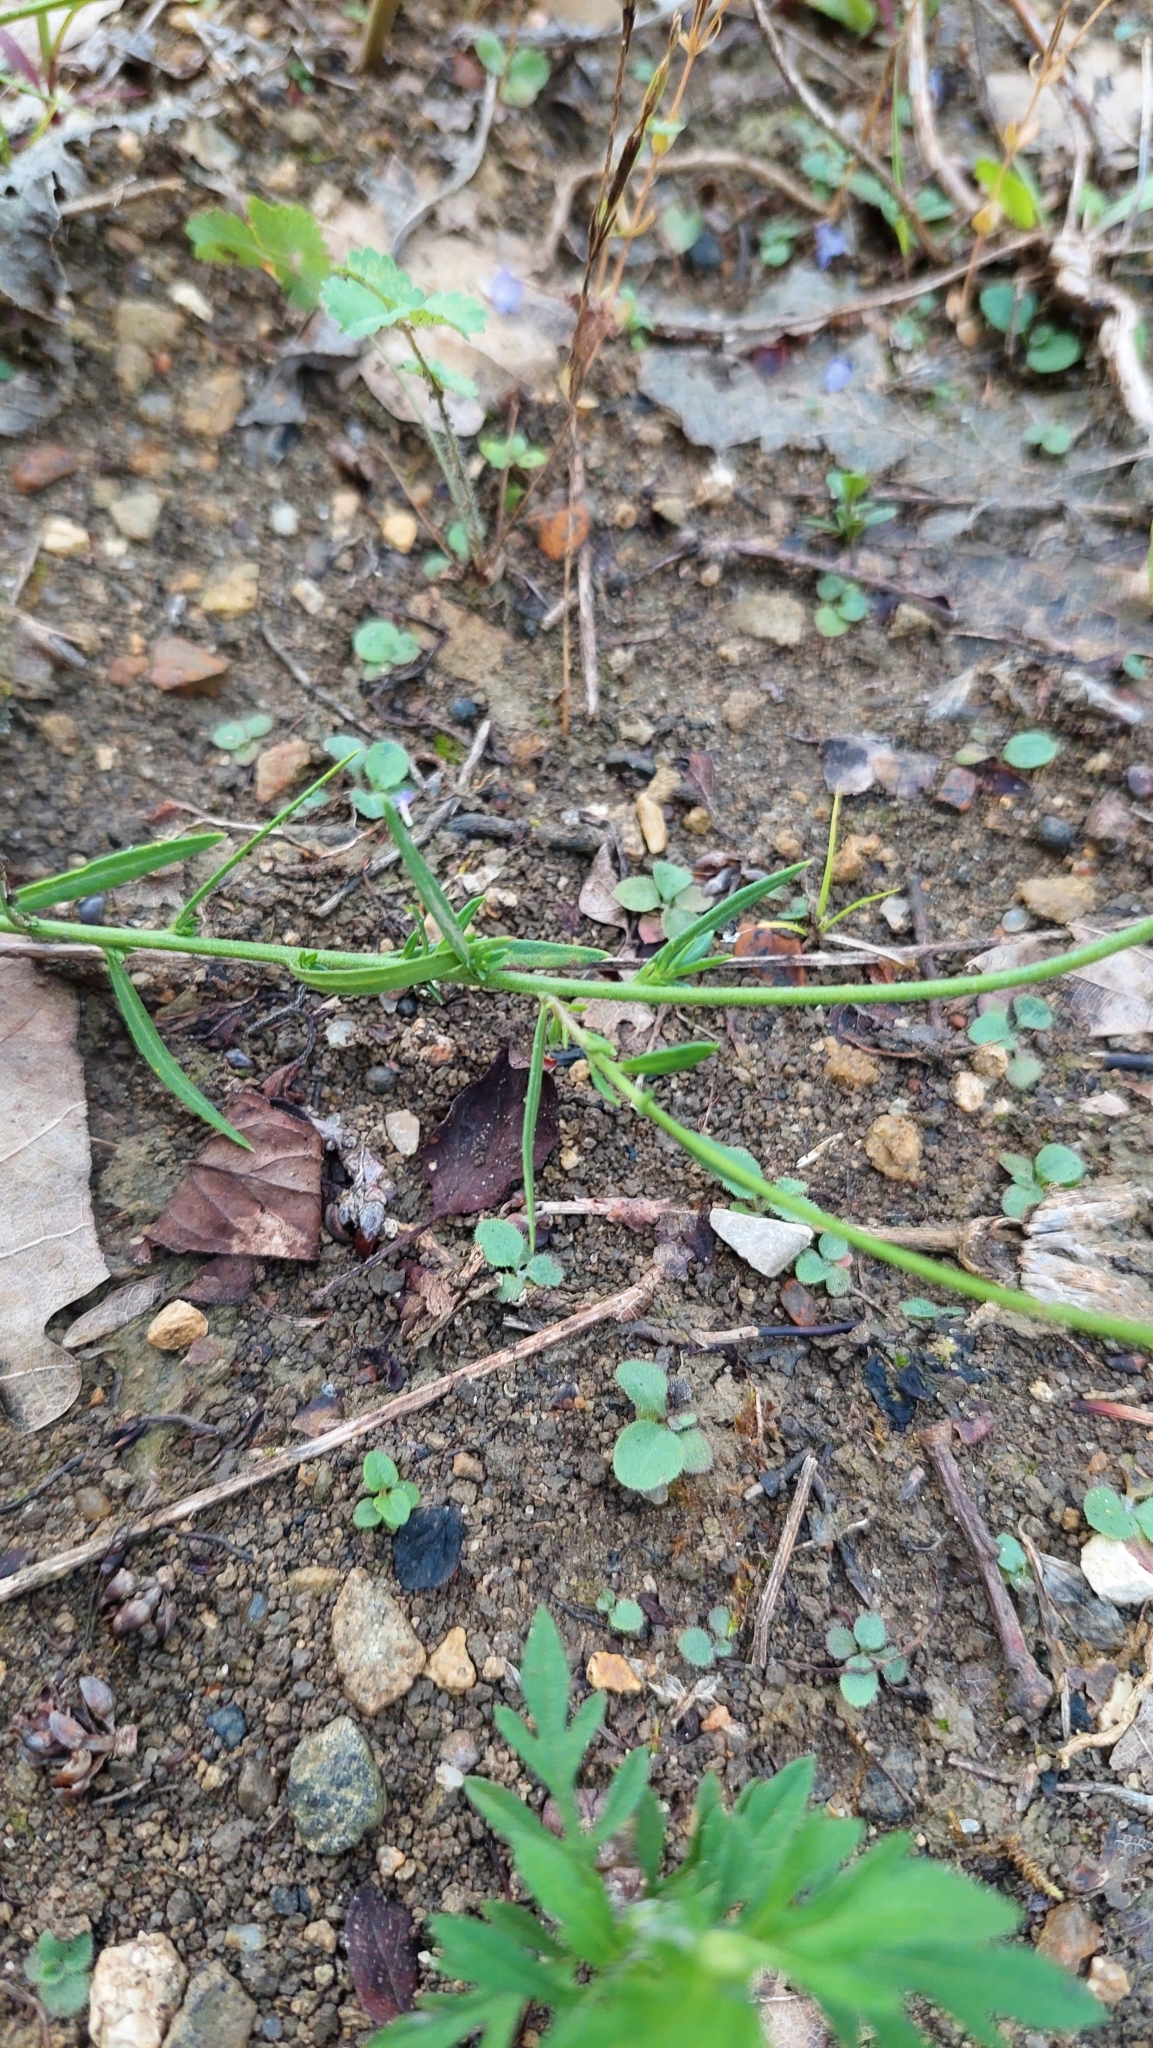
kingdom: Plantae
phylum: Tracheophyta
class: Magnoliopsida
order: Fabales
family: Polygalaceae
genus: Polygala
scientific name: Polygala major
